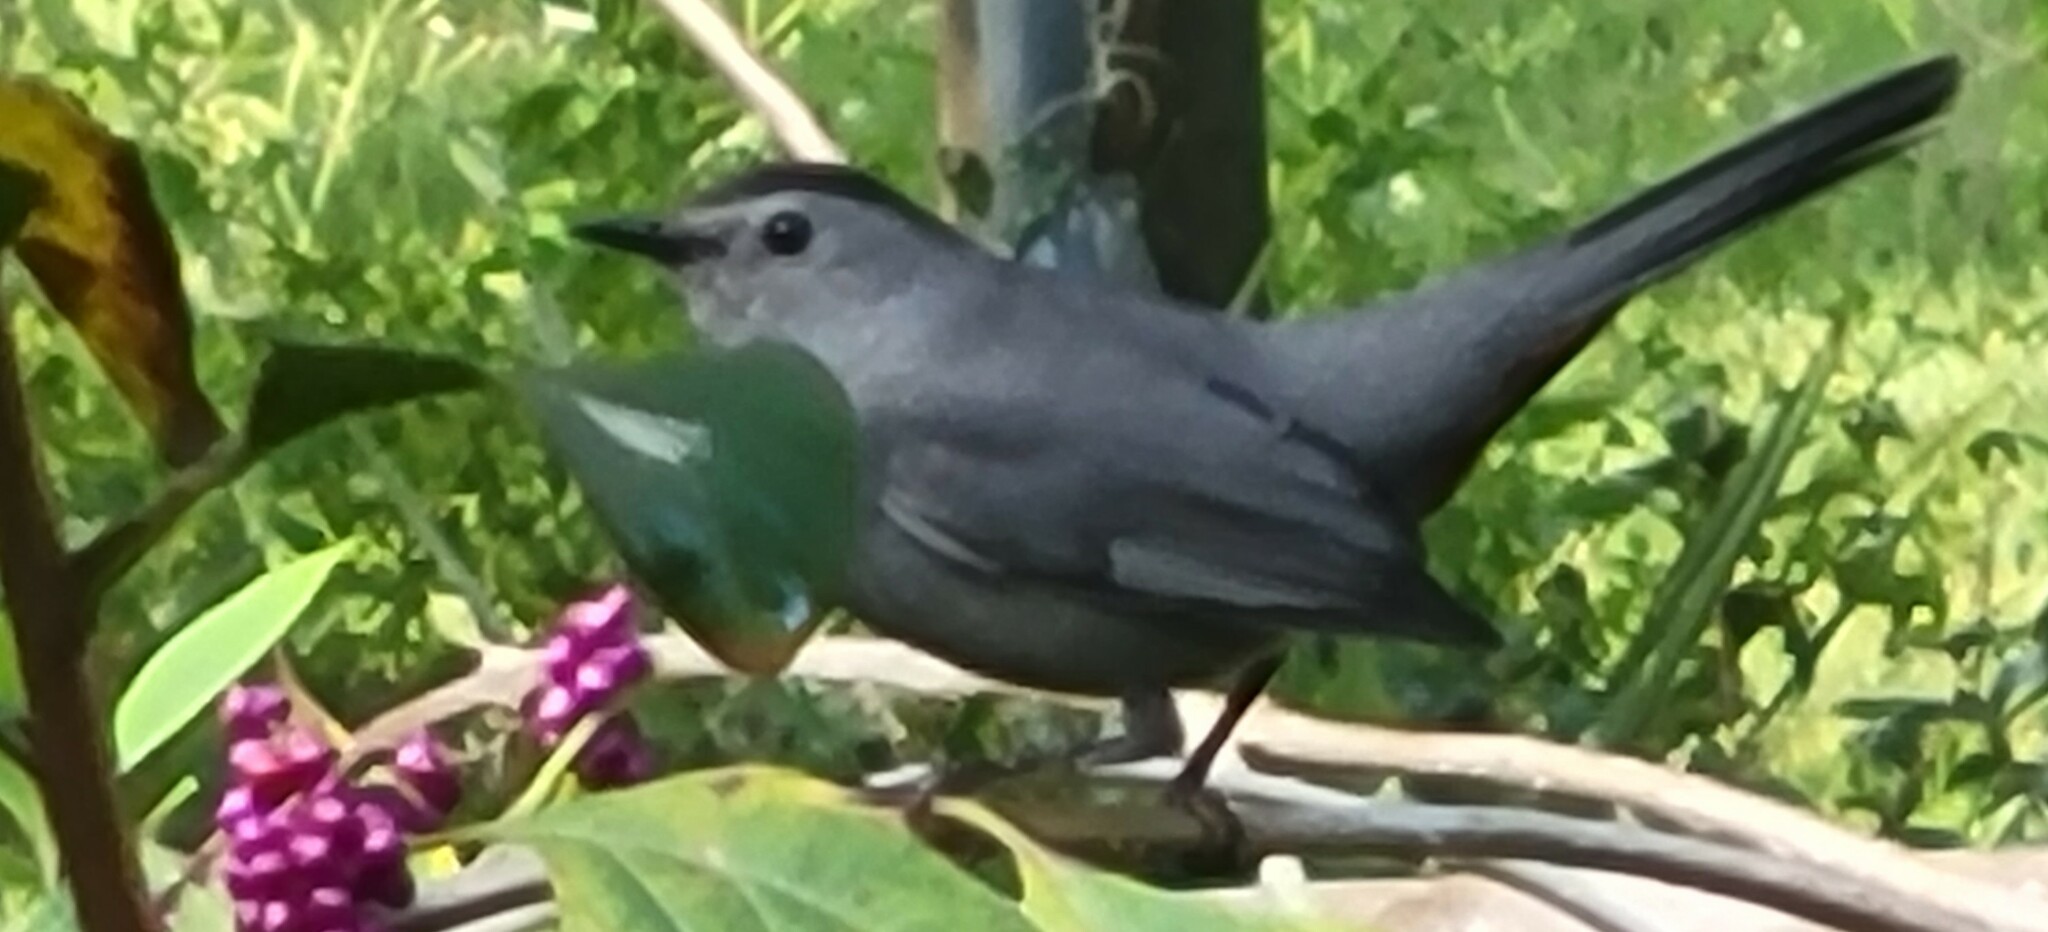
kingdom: Animalia
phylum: Chordata
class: Aves
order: Passeriformes
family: Mimidae
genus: Dumetella
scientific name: Dumetella carolinensis
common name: Gray catbird
